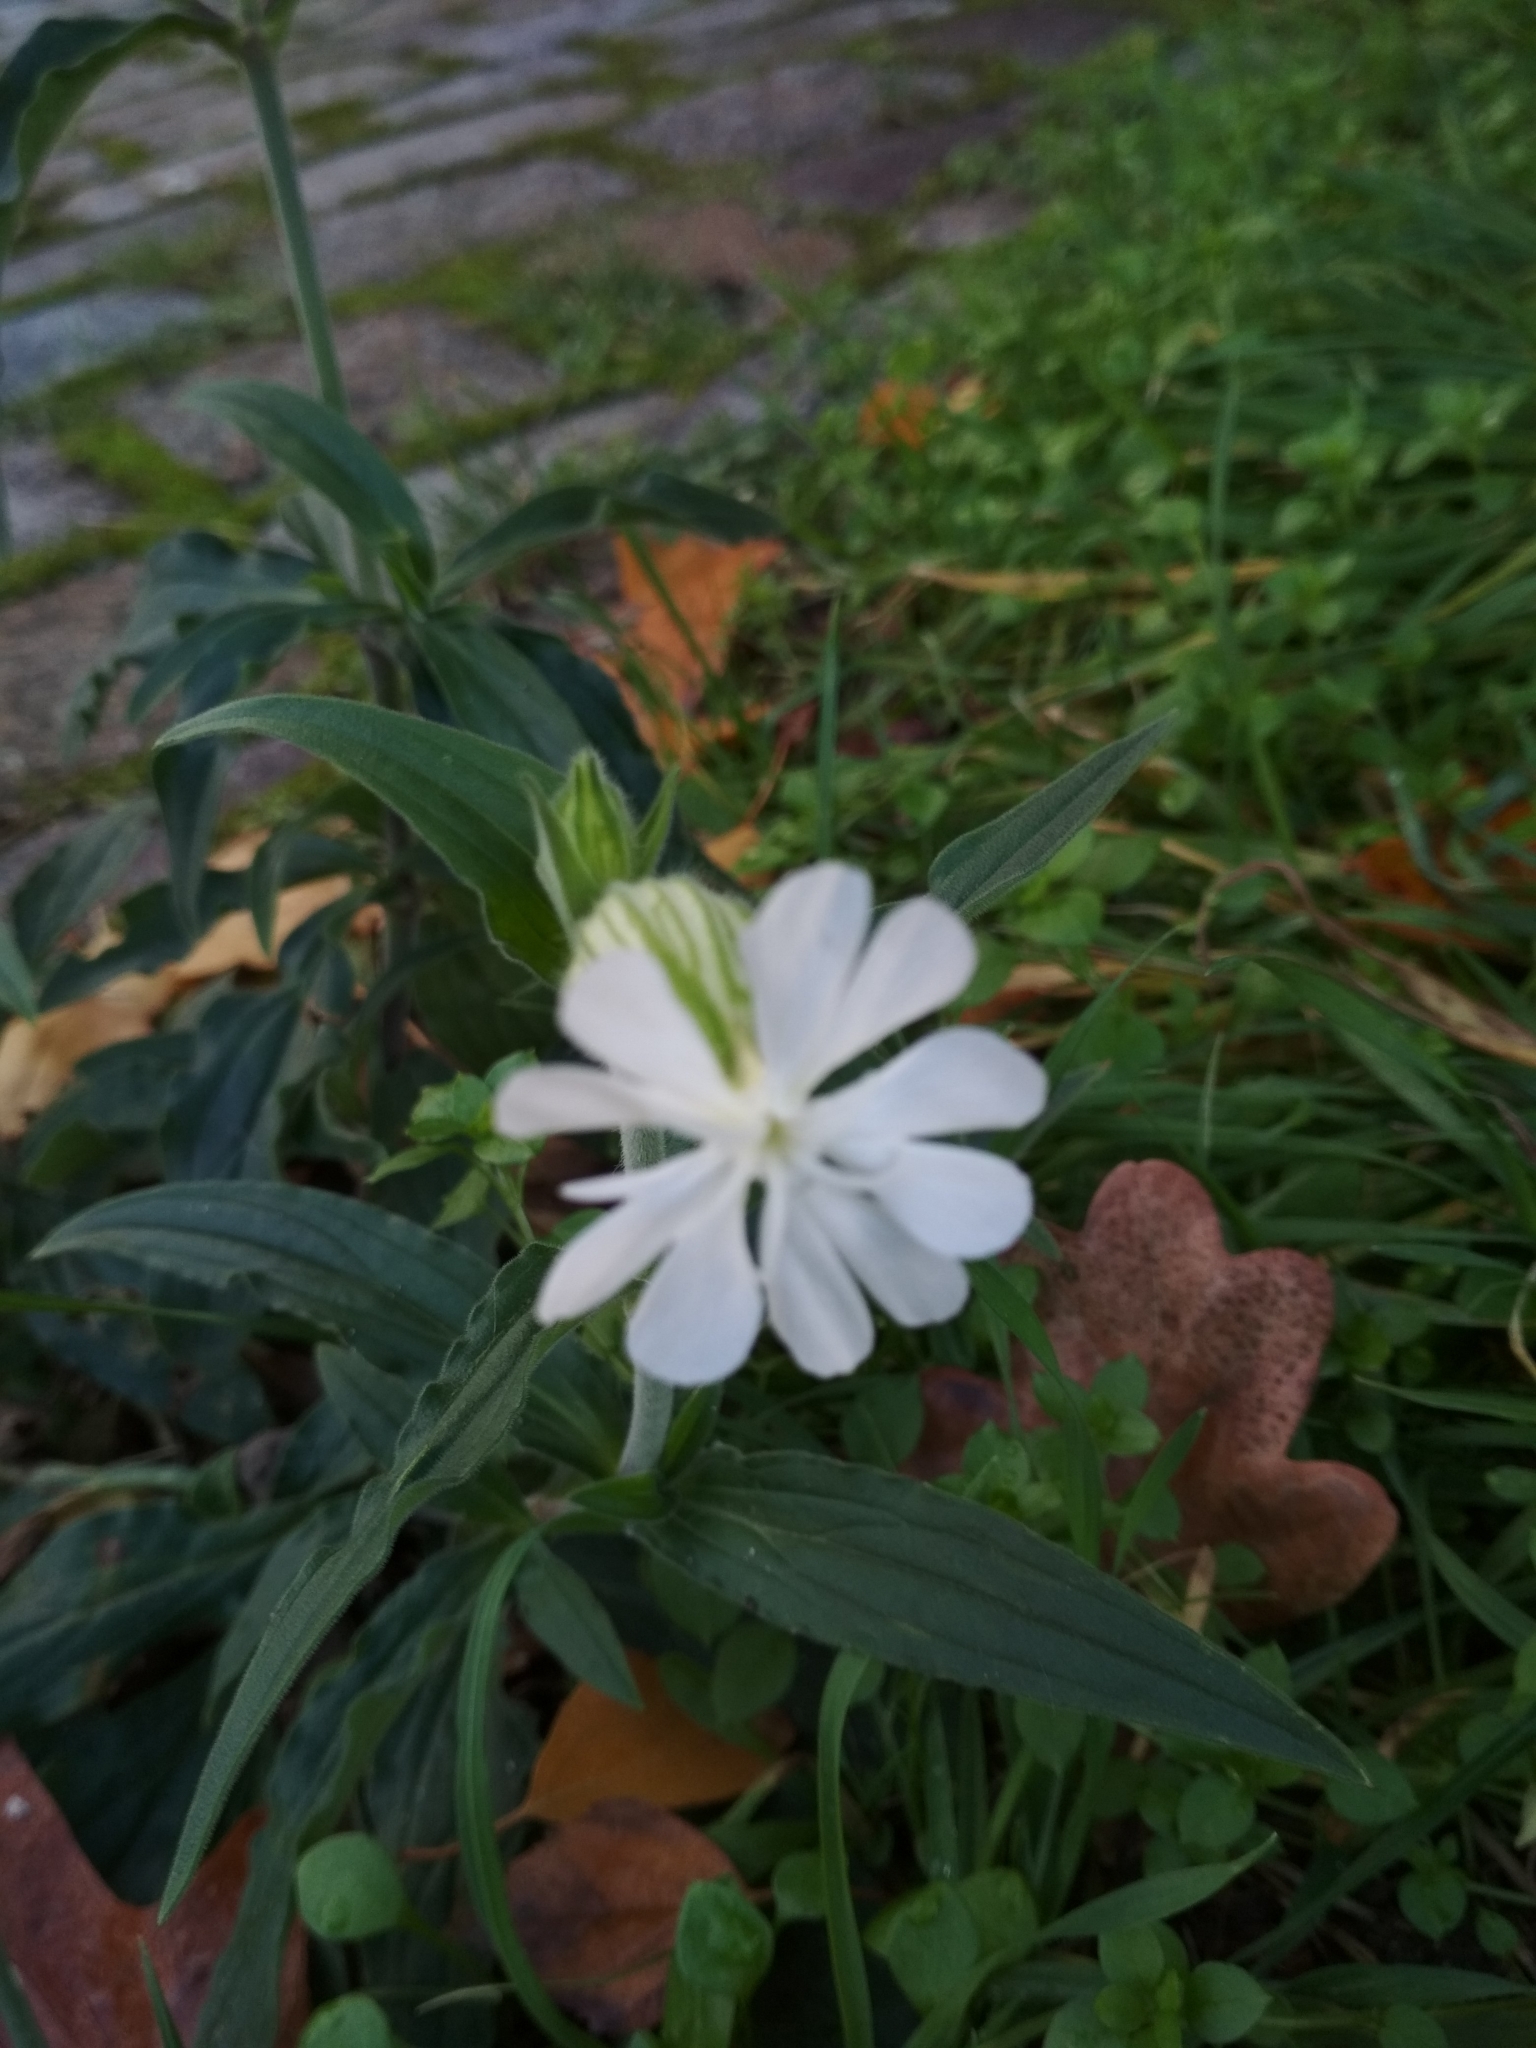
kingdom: Plantae
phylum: Tracheophyta
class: Magnoliopsida
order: Caryophyllales
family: Caryophyllaceae
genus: Silene
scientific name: Silene latifolia
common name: White campion
